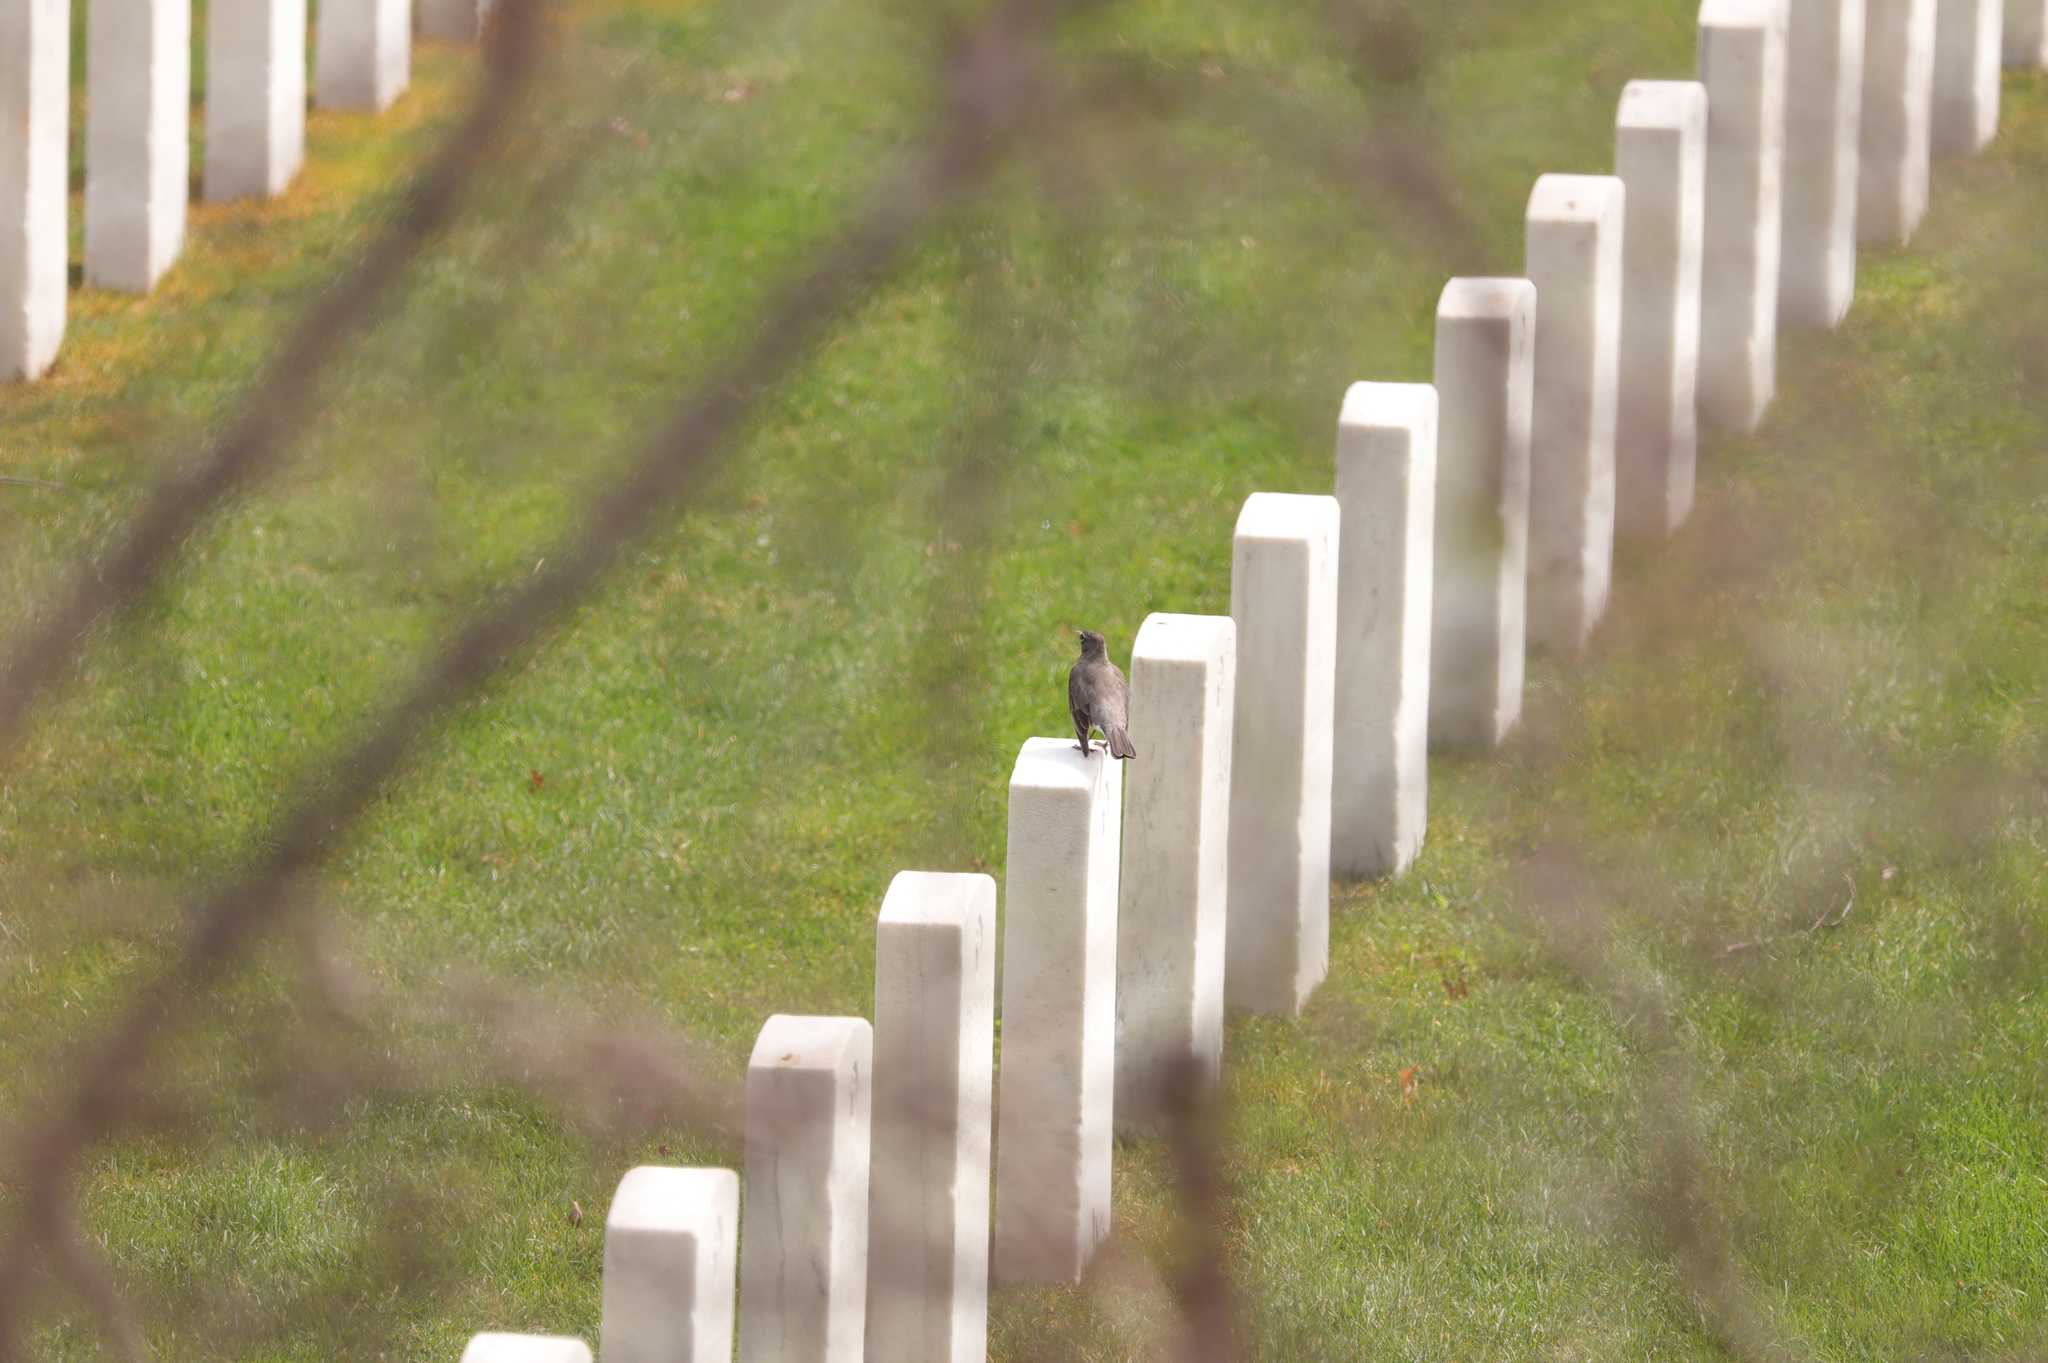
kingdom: Animalia
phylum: Chordata
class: Aves
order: Passeriformes
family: Turdidae
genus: Turdus
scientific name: Turdus migratorius
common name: American robin
